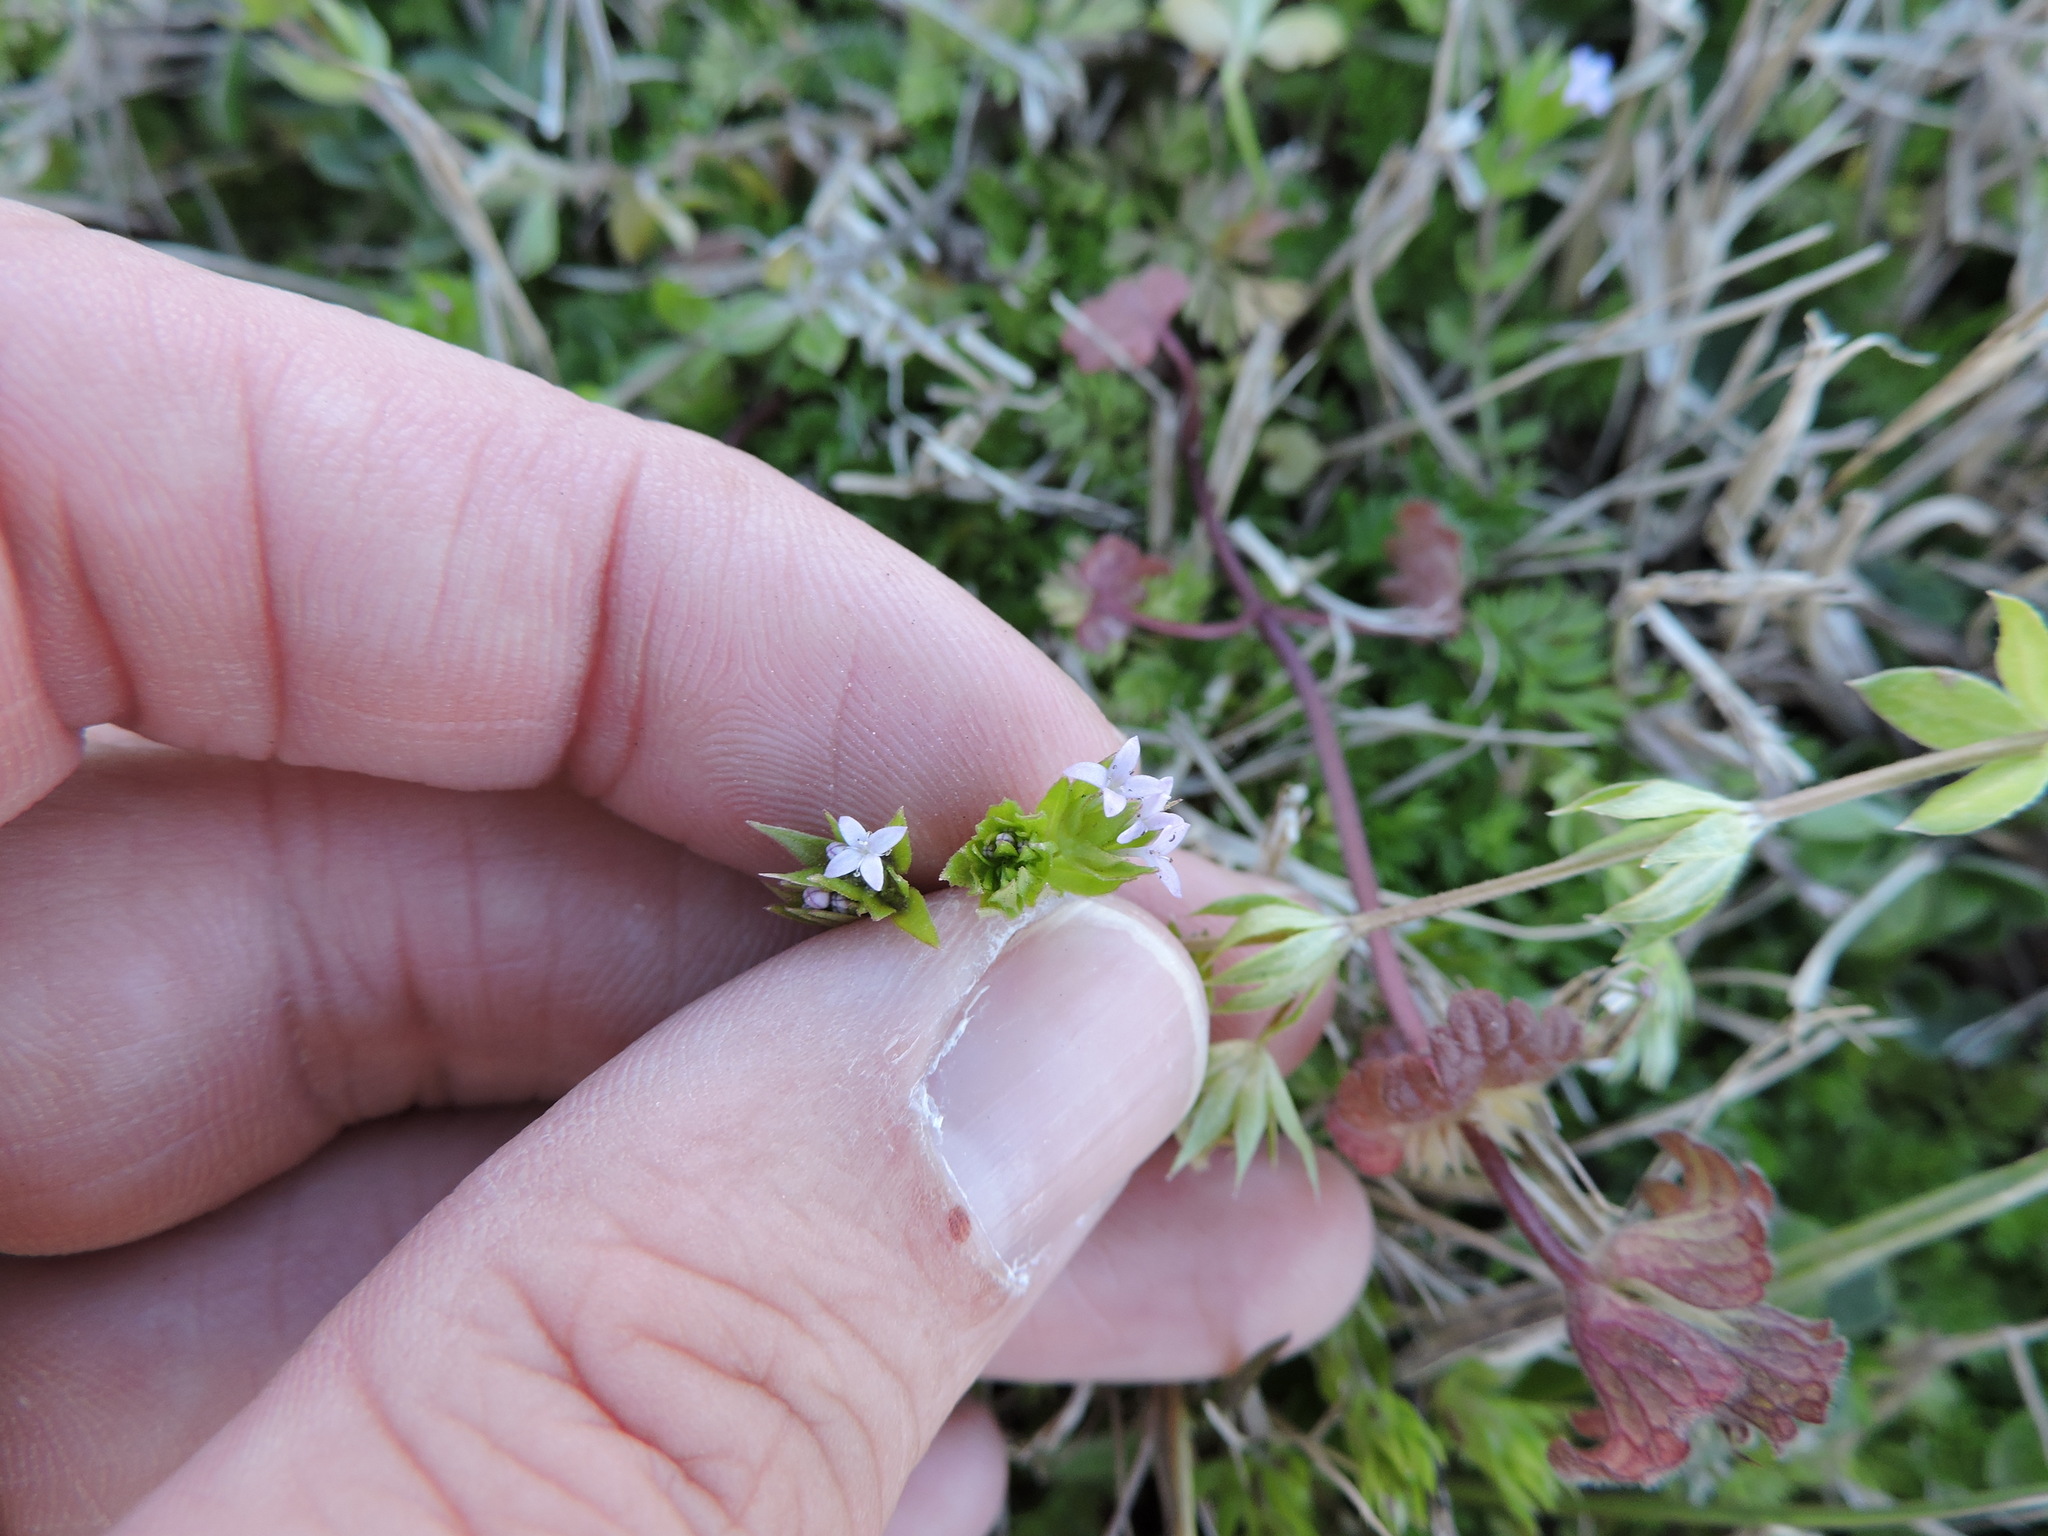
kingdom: Plantae
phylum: Tracheophyta
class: Magnoliopsida
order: Gentianales
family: Rubiaceae
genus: Sherardia
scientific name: Sherardia arvensis
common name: Field madder
